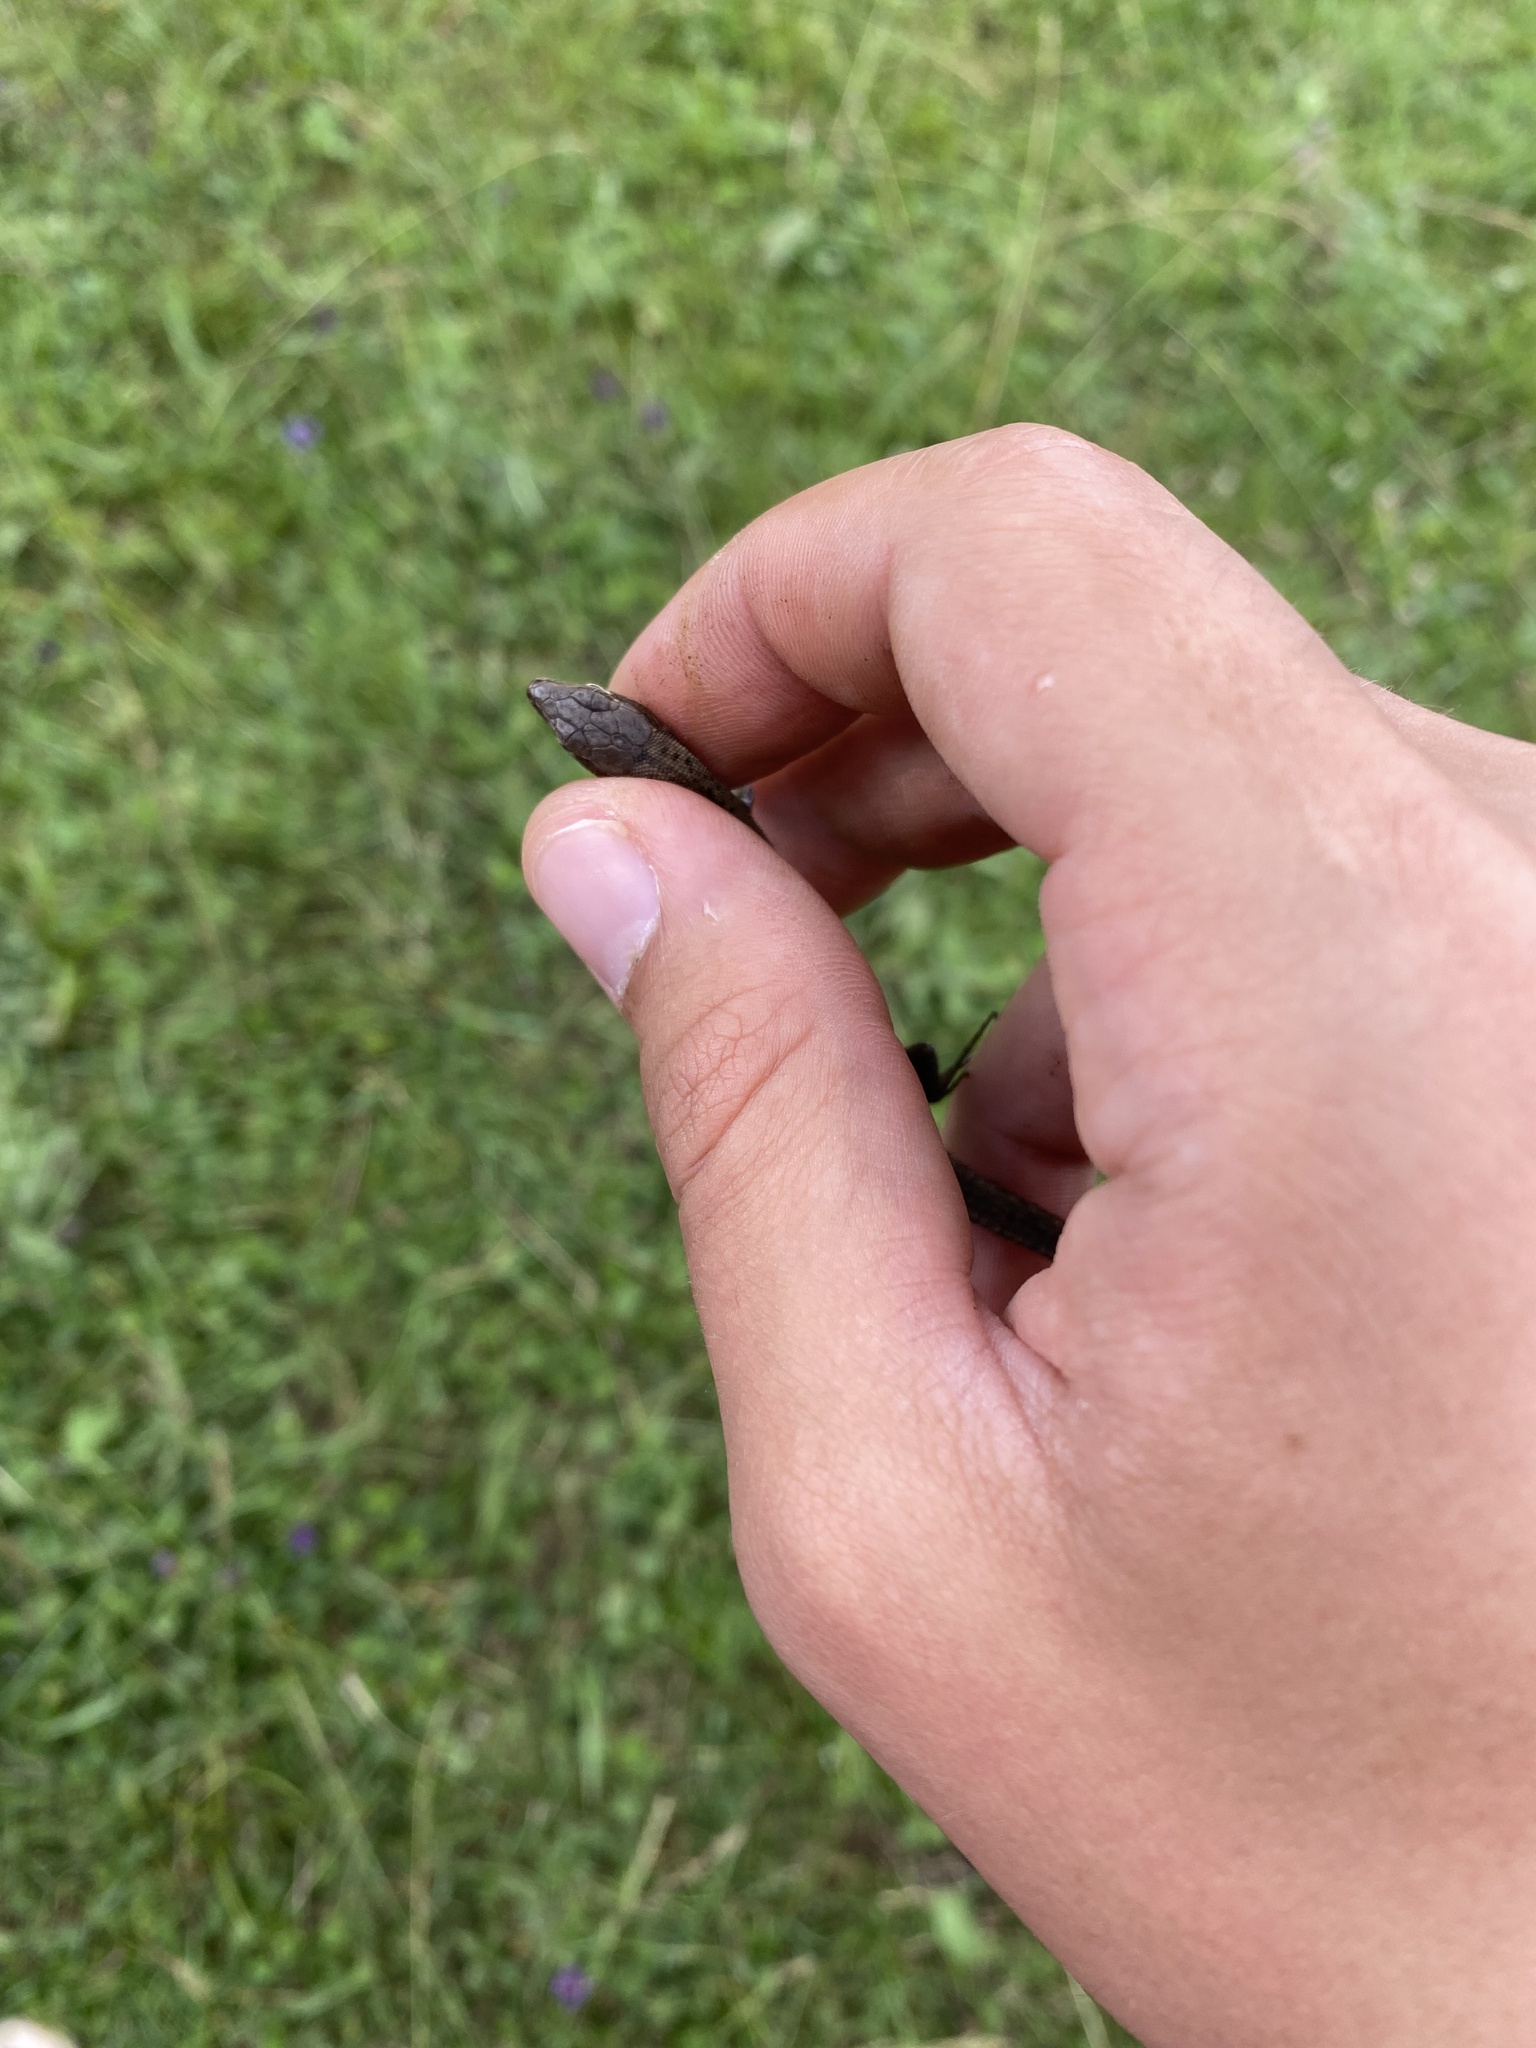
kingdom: Animalia
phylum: Chordata
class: Squamata
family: Lacertidae
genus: Darevskia
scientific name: Darevskia praticola
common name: Meadow lizard
